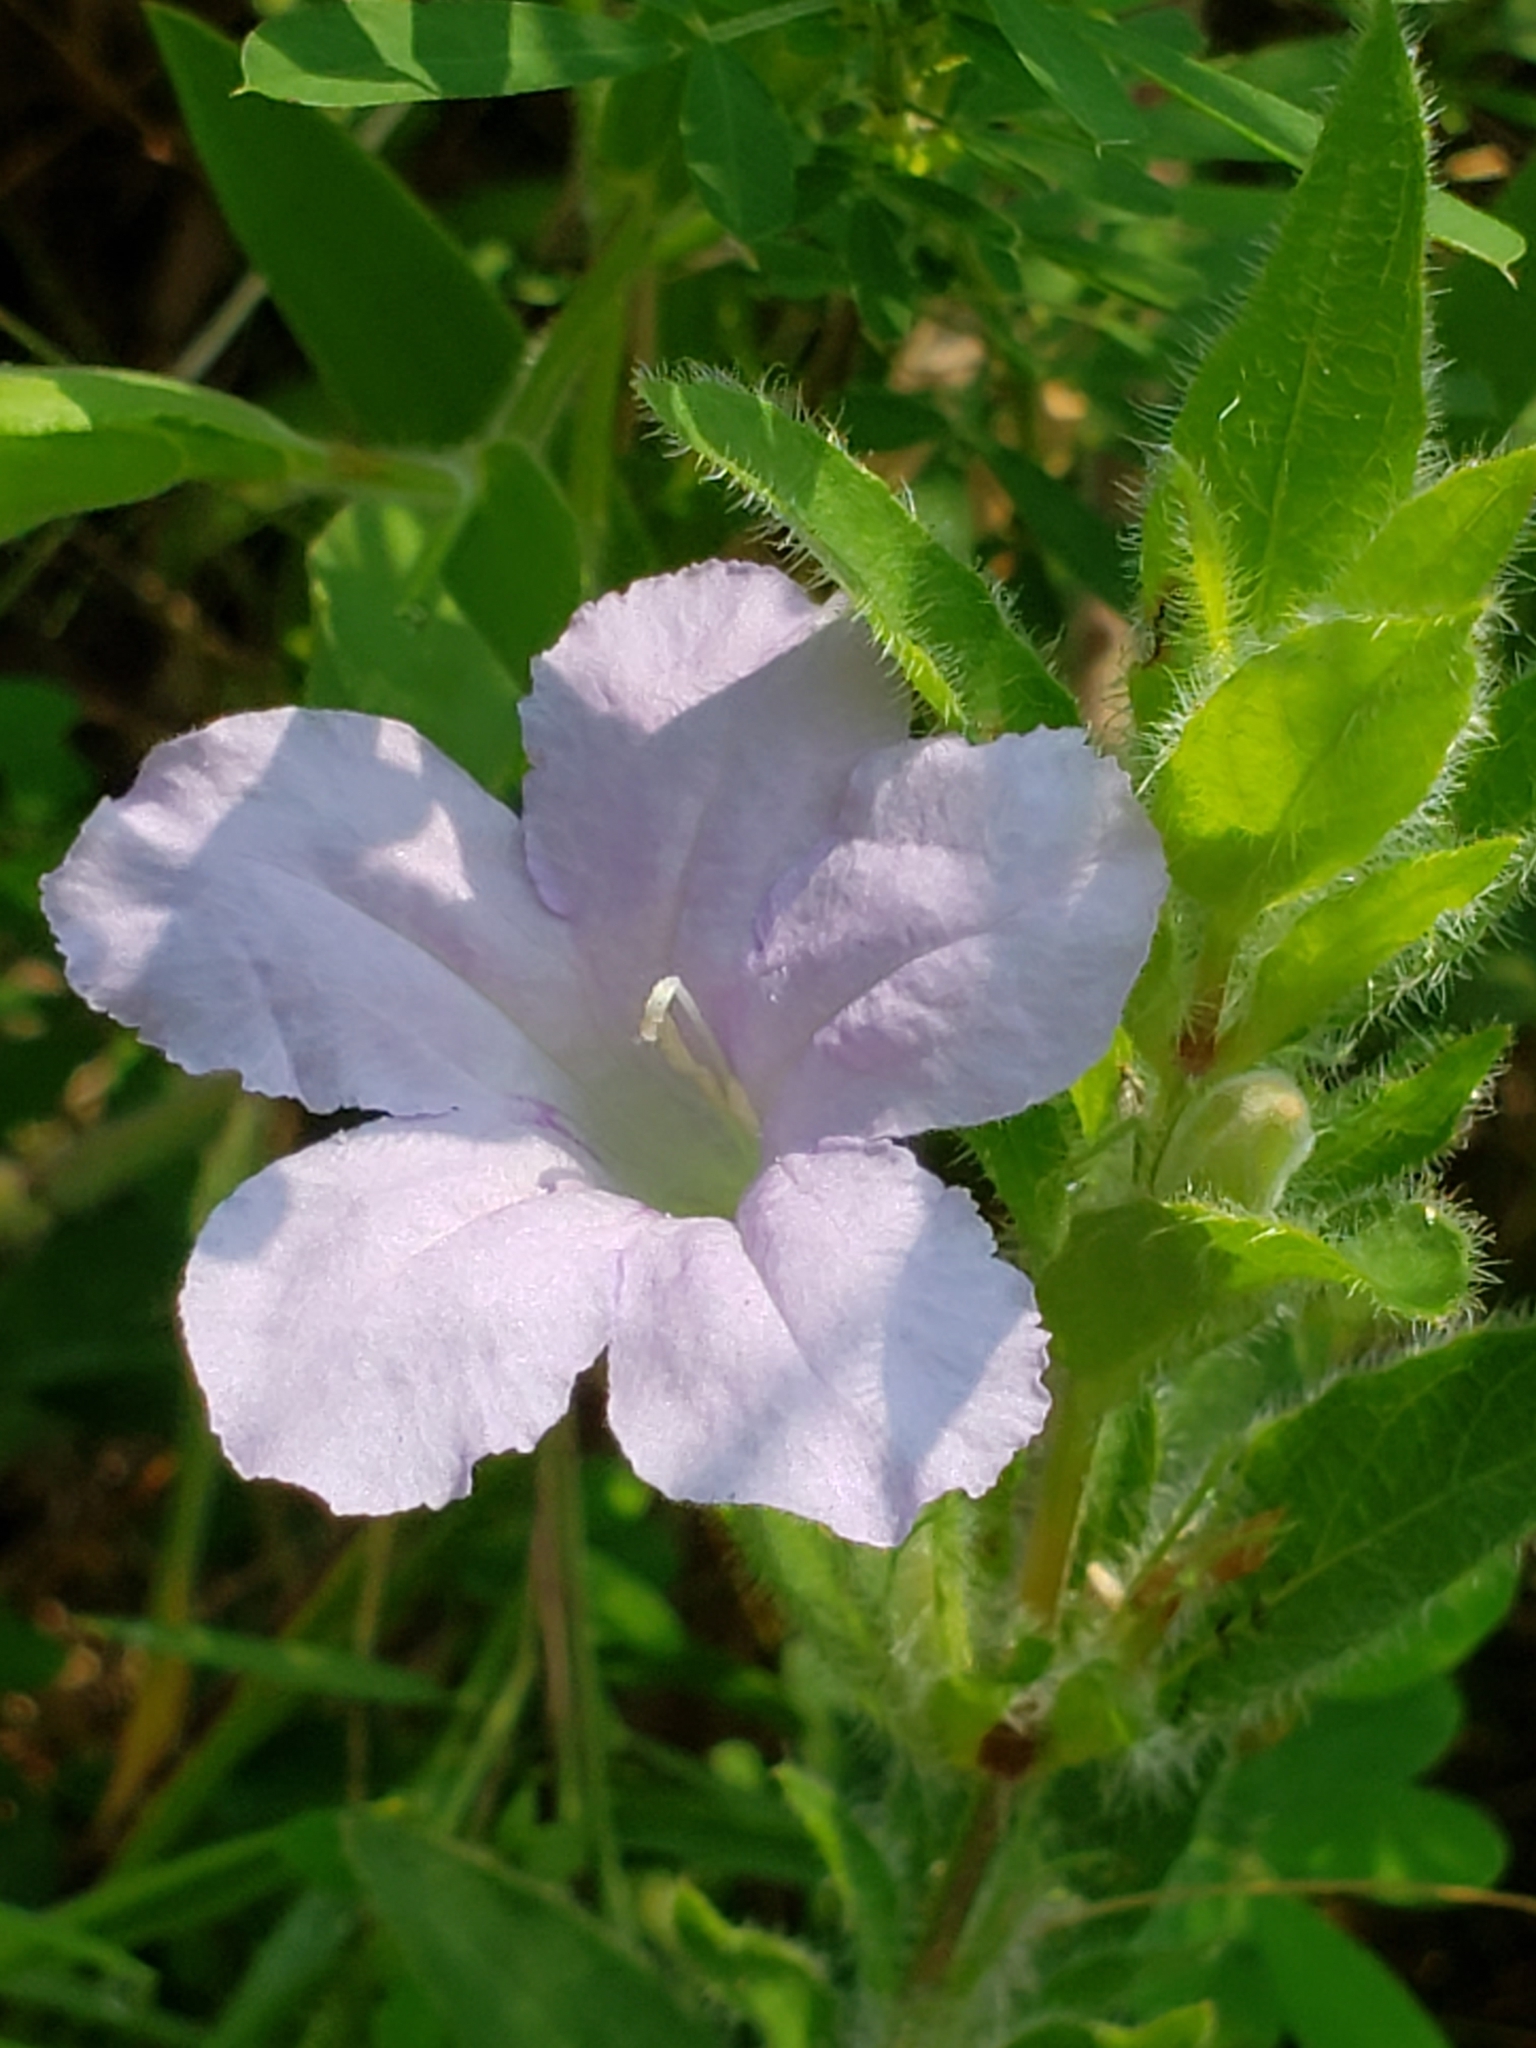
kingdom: Plantae
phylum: Tracheophyta
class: Magnoliopsida
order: Lamiales
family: Acanthaceae
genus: Ruellia
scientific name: Ruellia humilis
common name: Fringe-leaf ruellia
